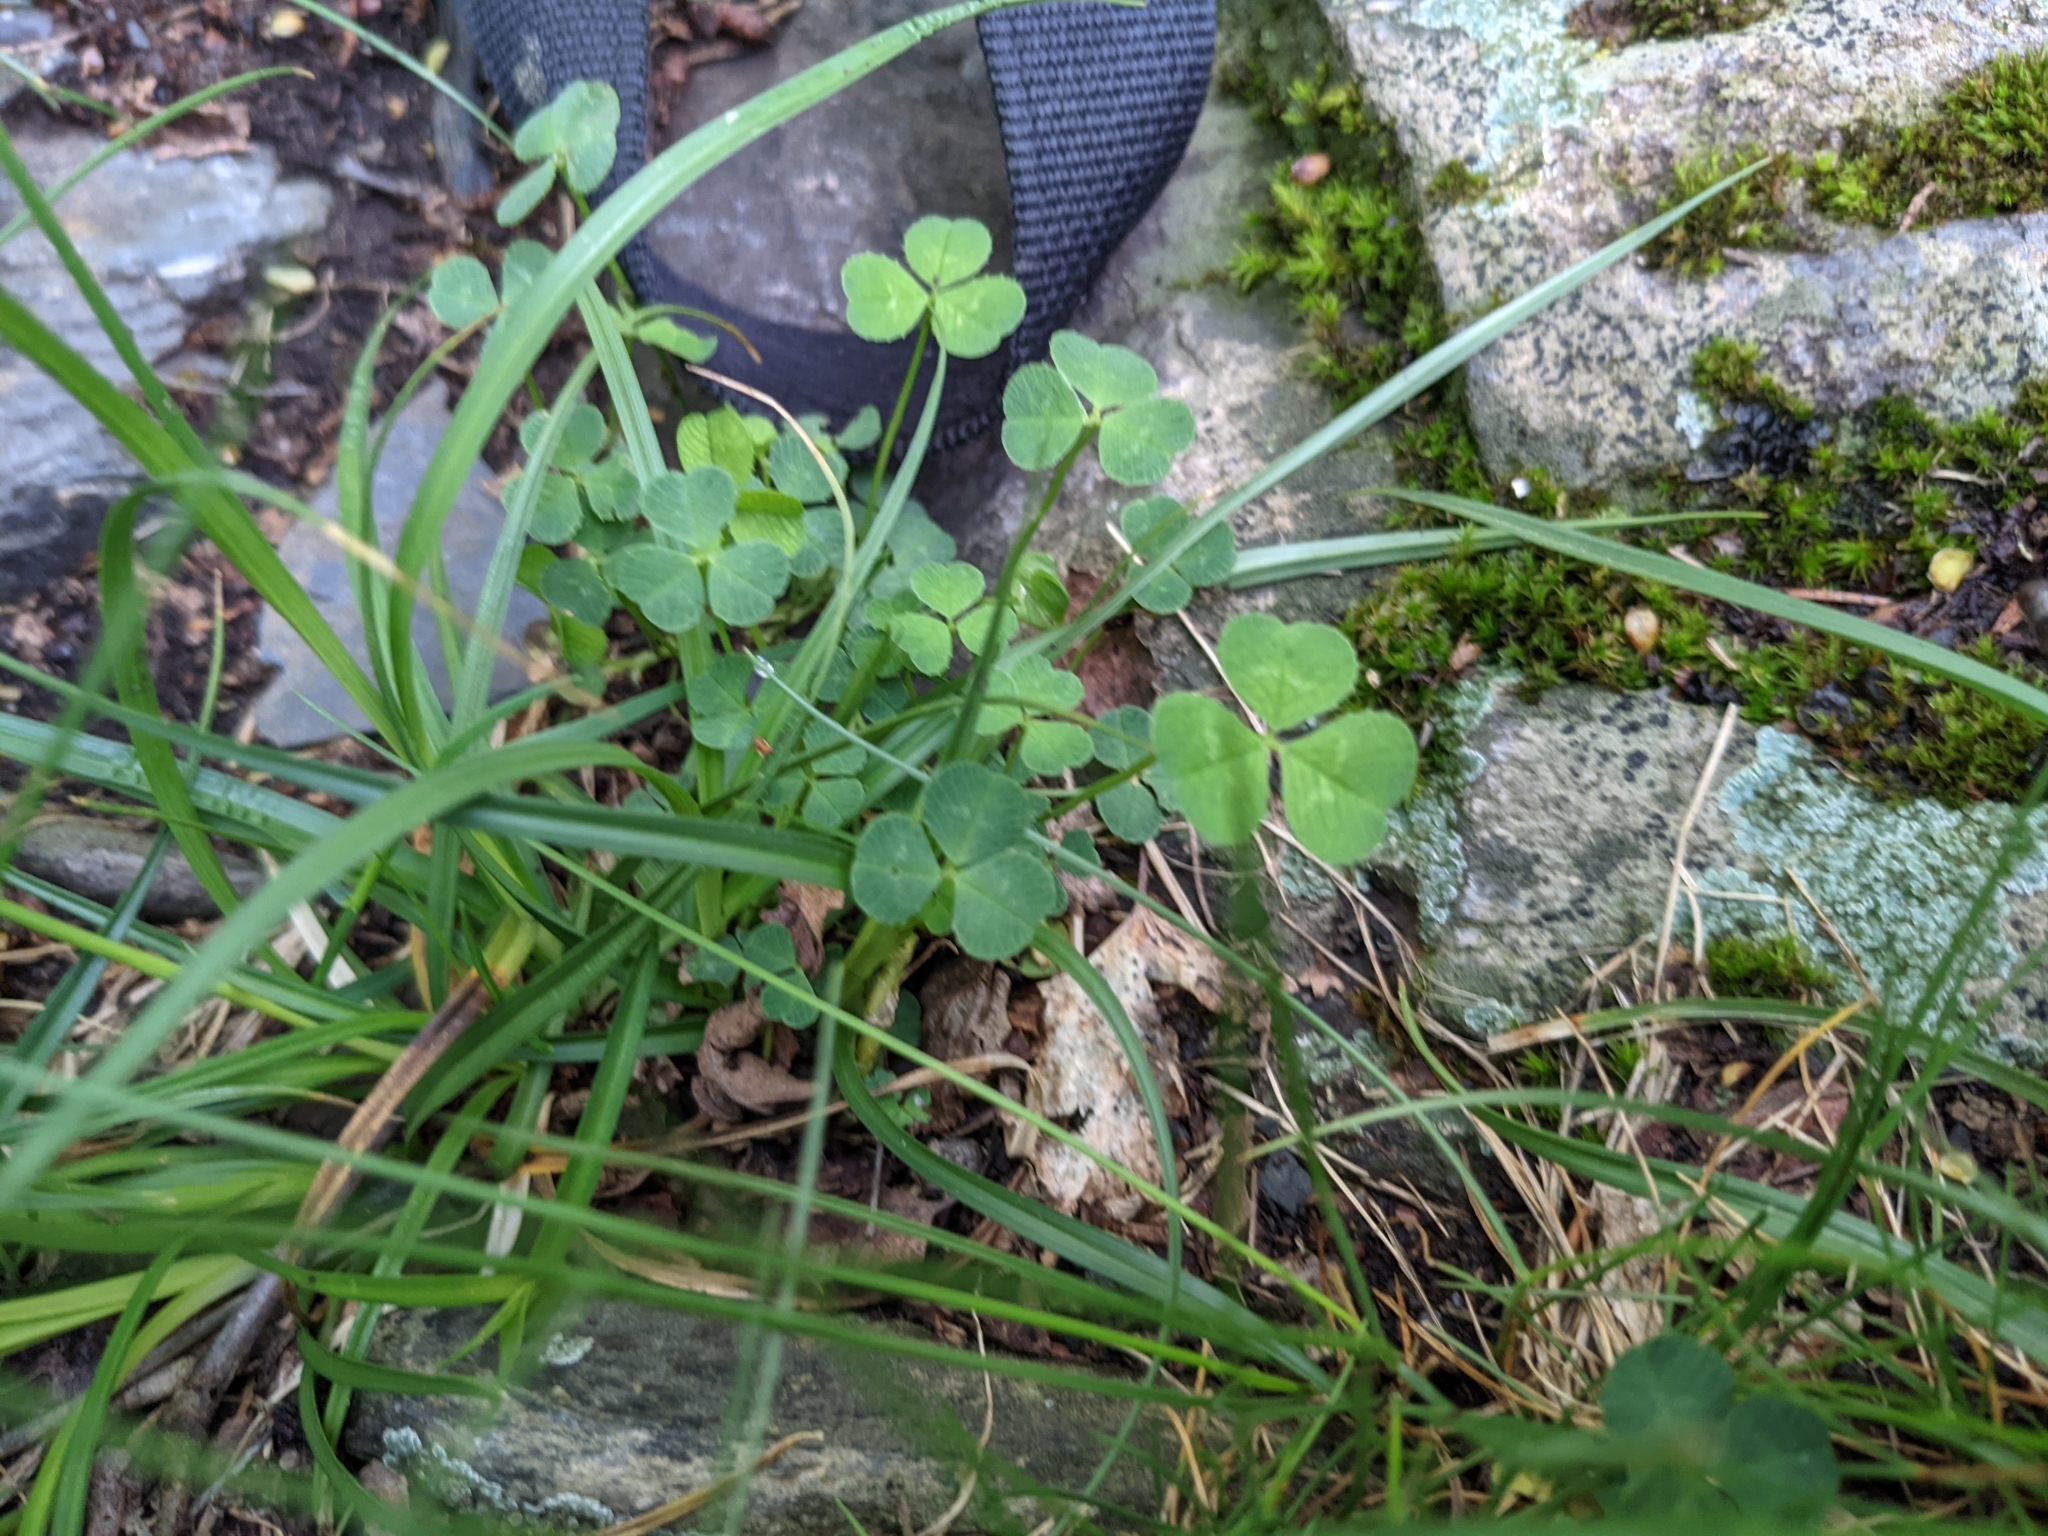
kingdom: Plantae
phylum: Tracheophyta
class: Magnoliopsida
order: Fabales
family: Fabaceae
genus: Trifolium
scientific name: Trifolium repens
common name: White clover
